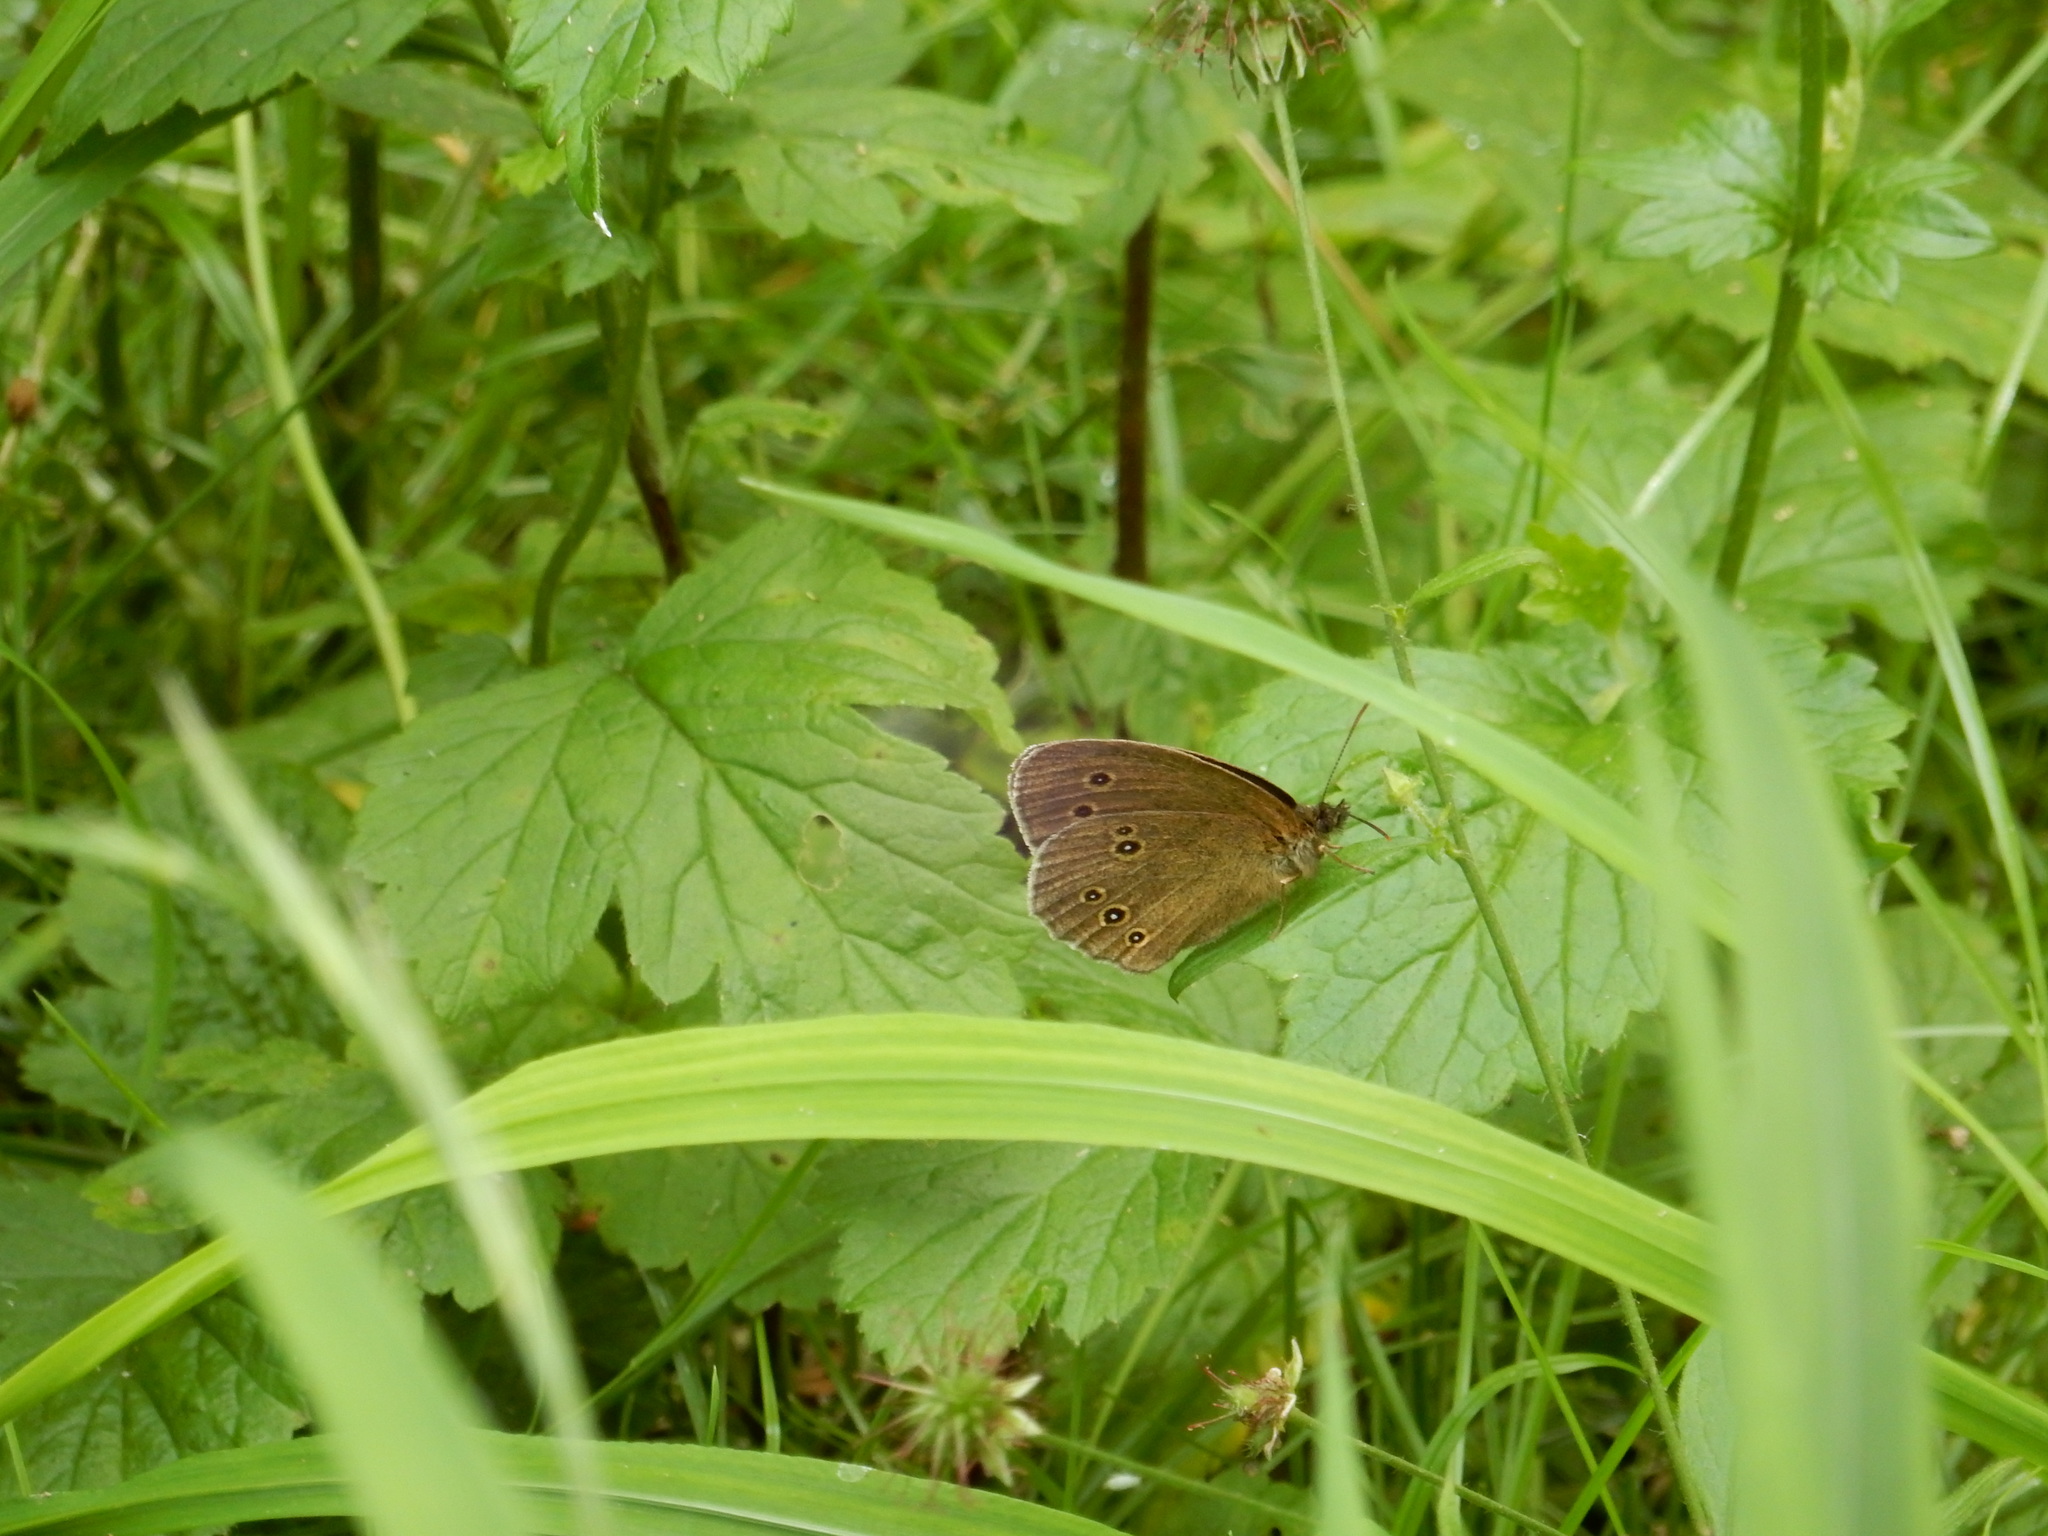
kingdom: Animalia
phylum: Arthropoda
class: Insecta
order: Lepidoptera
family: Nymphalidae
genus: Aphantopus
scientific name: Aphantopus hyperantus
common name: Ringlet
